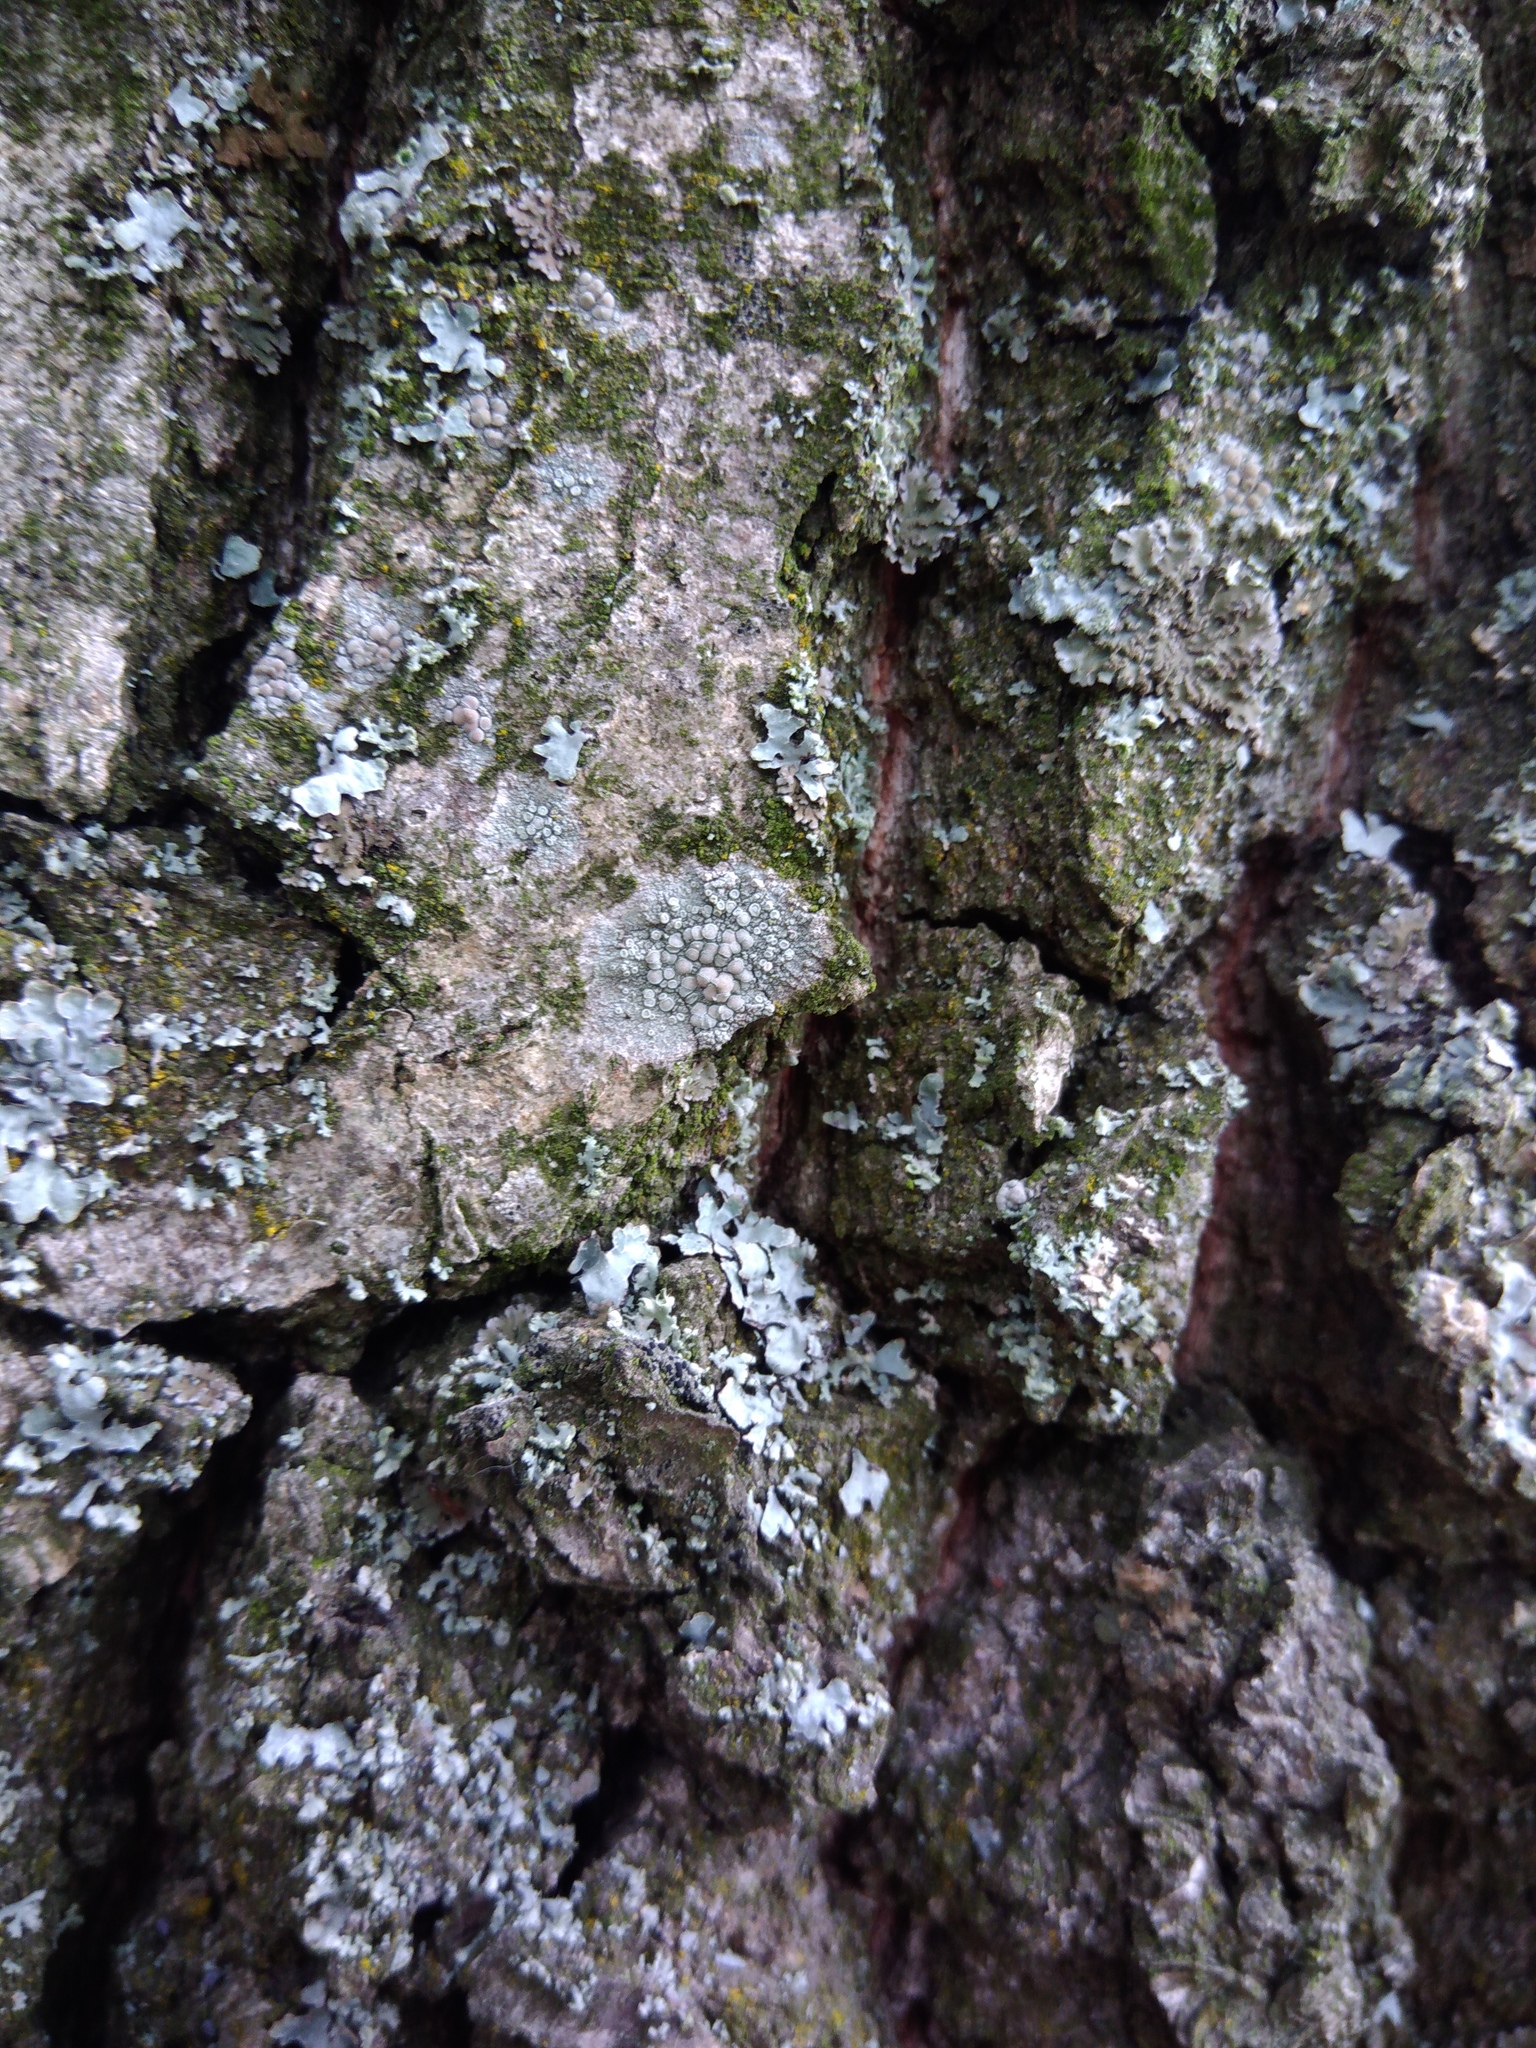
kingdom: Fungi
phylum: Ascomycota
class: Lecanoromycetes
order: Lecanorales
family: Lecanoraceae
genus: Glaucomaria
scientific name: Glaucomaria carpinea
